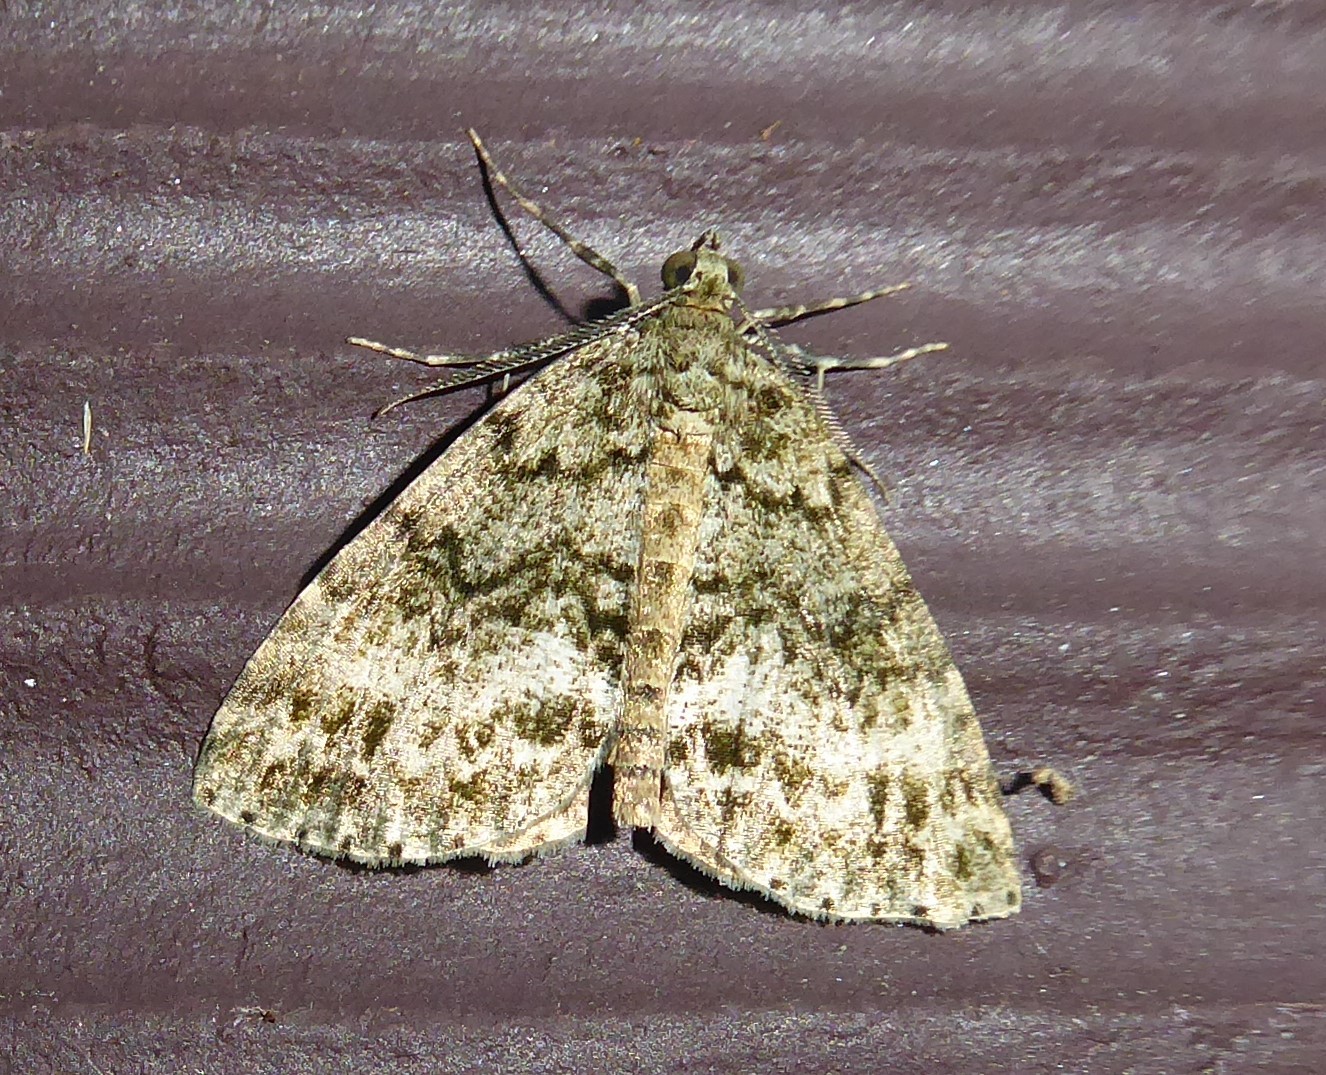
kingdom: Animalia
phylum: Arthropoda
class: Insecta
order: Lepidoptera
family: Geometridae
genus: Pseudocoremia
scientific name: Pseudocoremia indistincta
